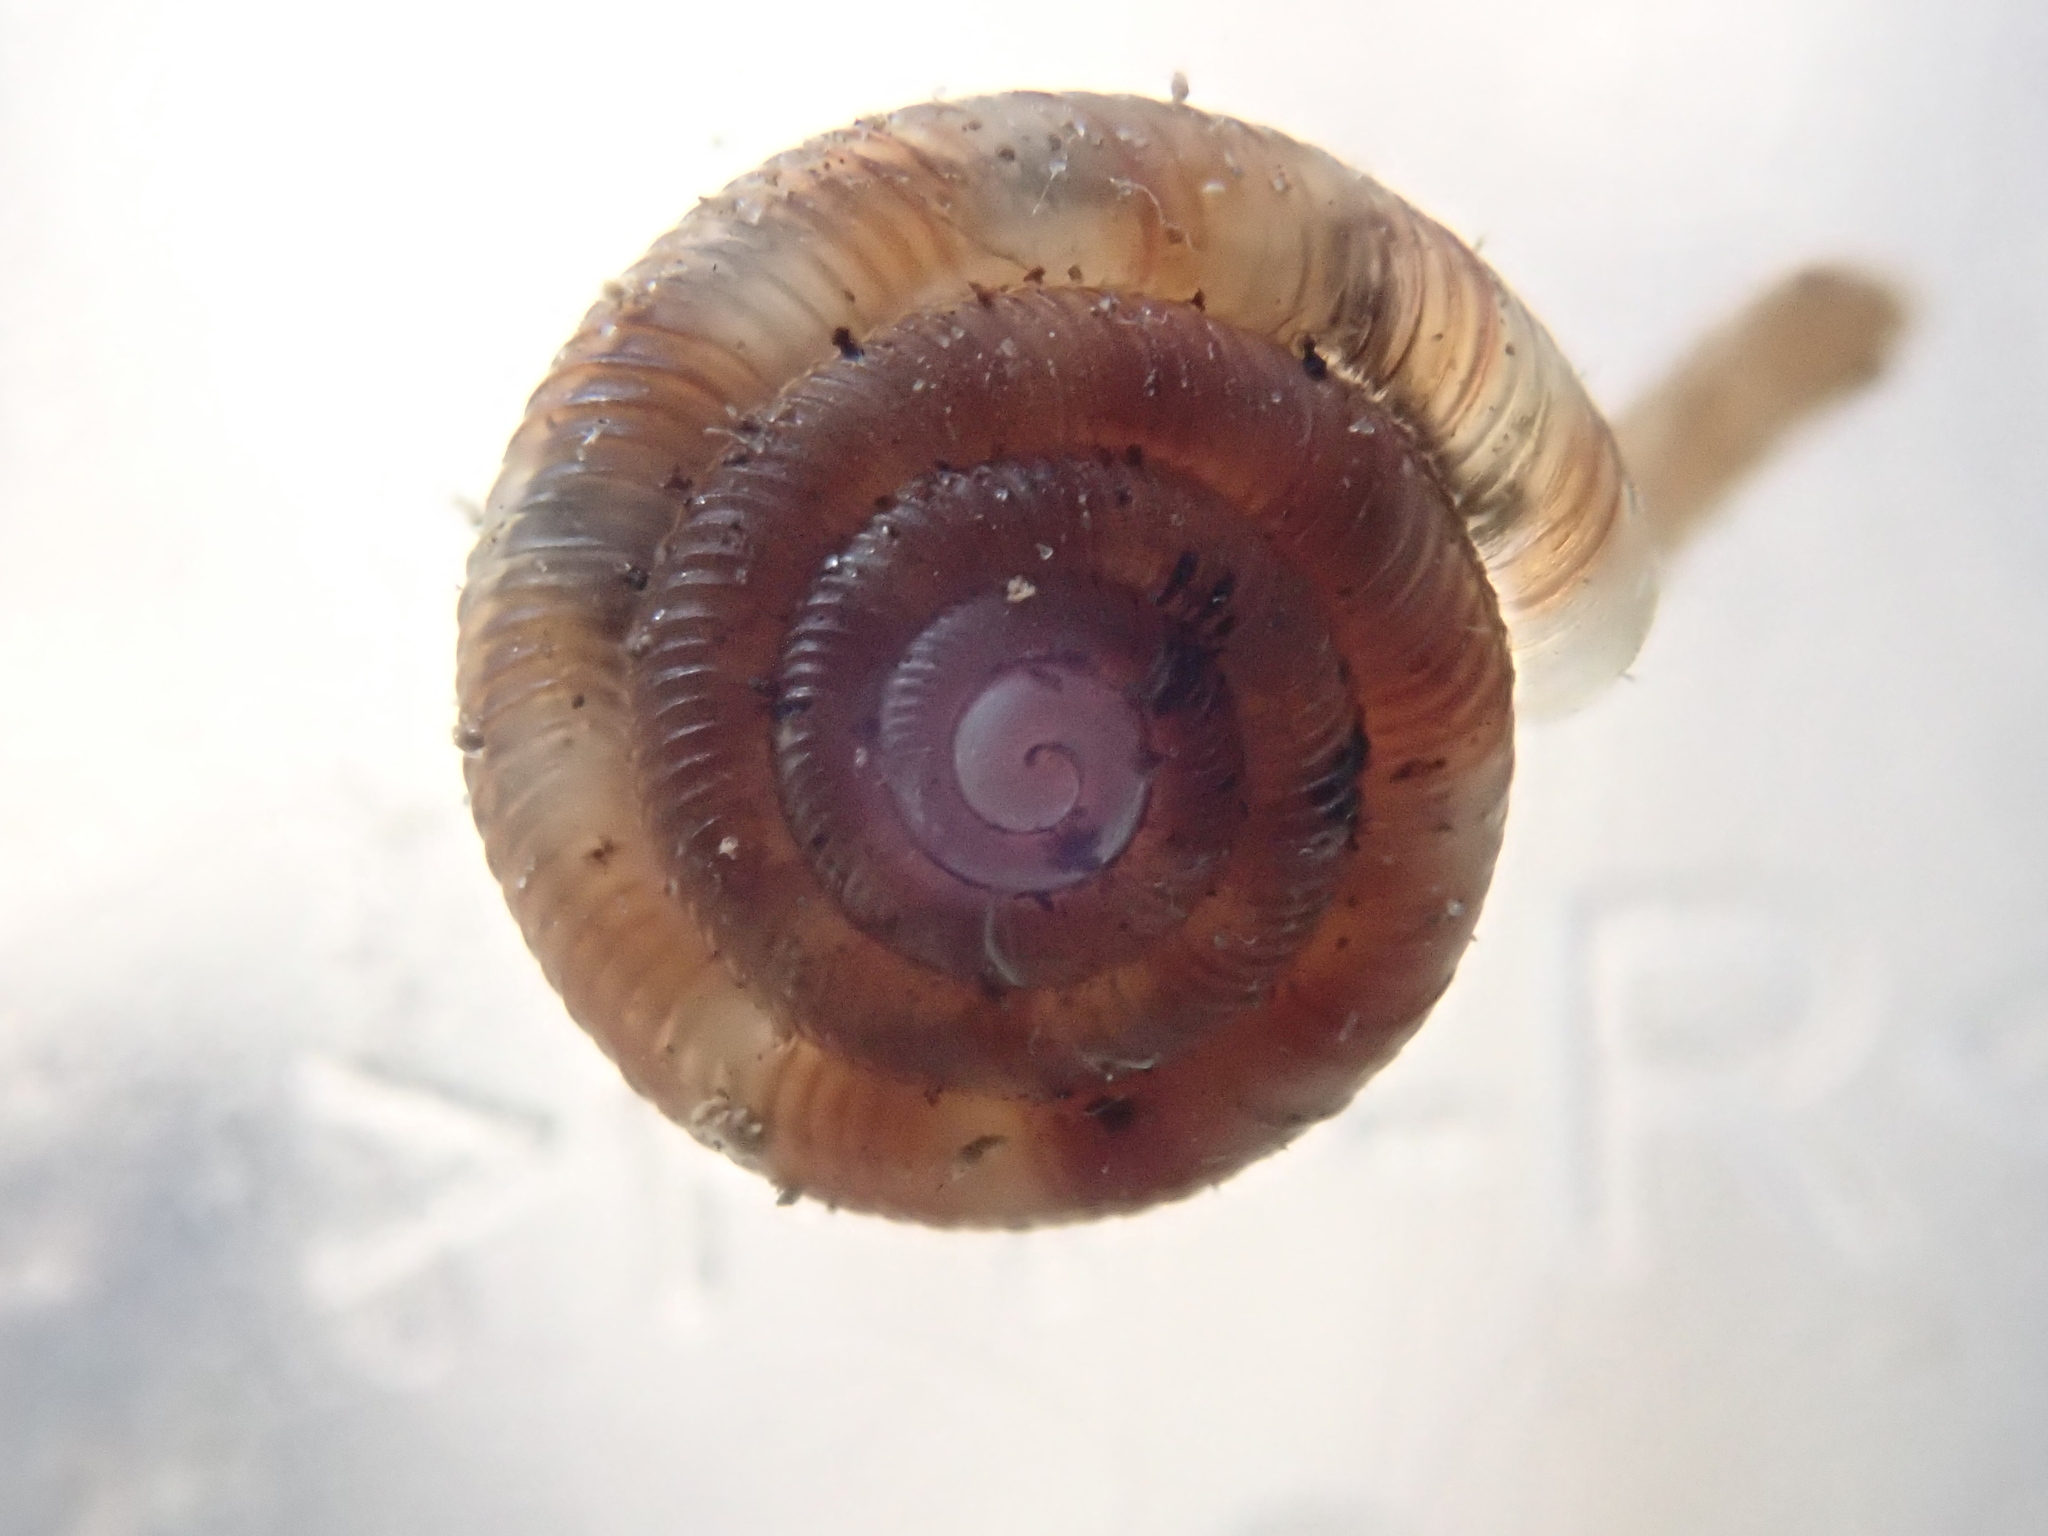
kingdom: Animalia
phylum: Mollusca
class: Gastropoda
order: Stylommatophora
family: Discidae
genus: Discus
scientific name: Discus rotundatus
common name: Rounded snail
